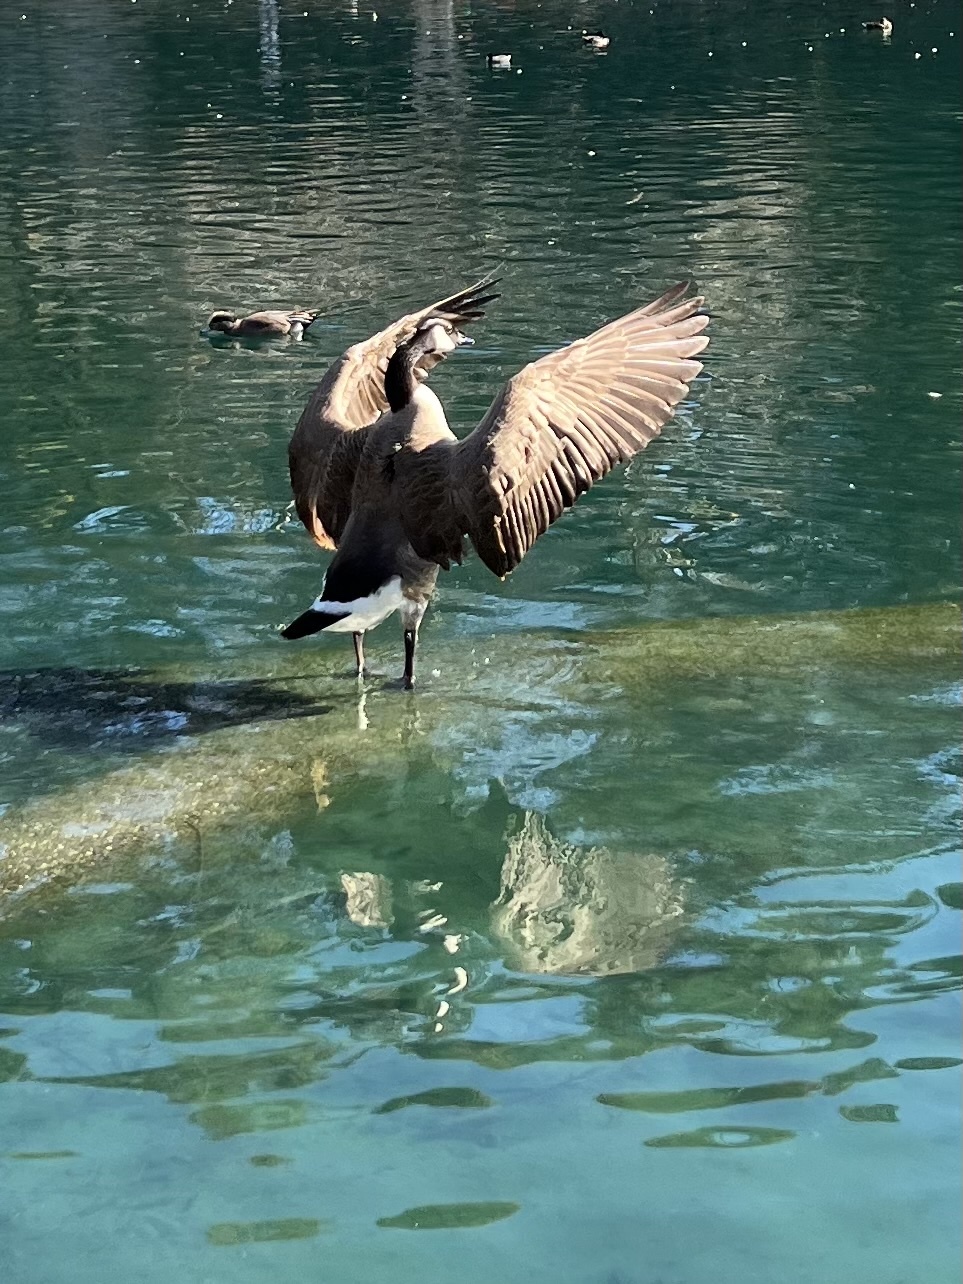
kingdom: Animalia
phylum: Chordata
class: Aves
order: Anseriformes
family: Anatidae
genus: Branta
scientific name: Branta canadensis
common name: Canada goose
